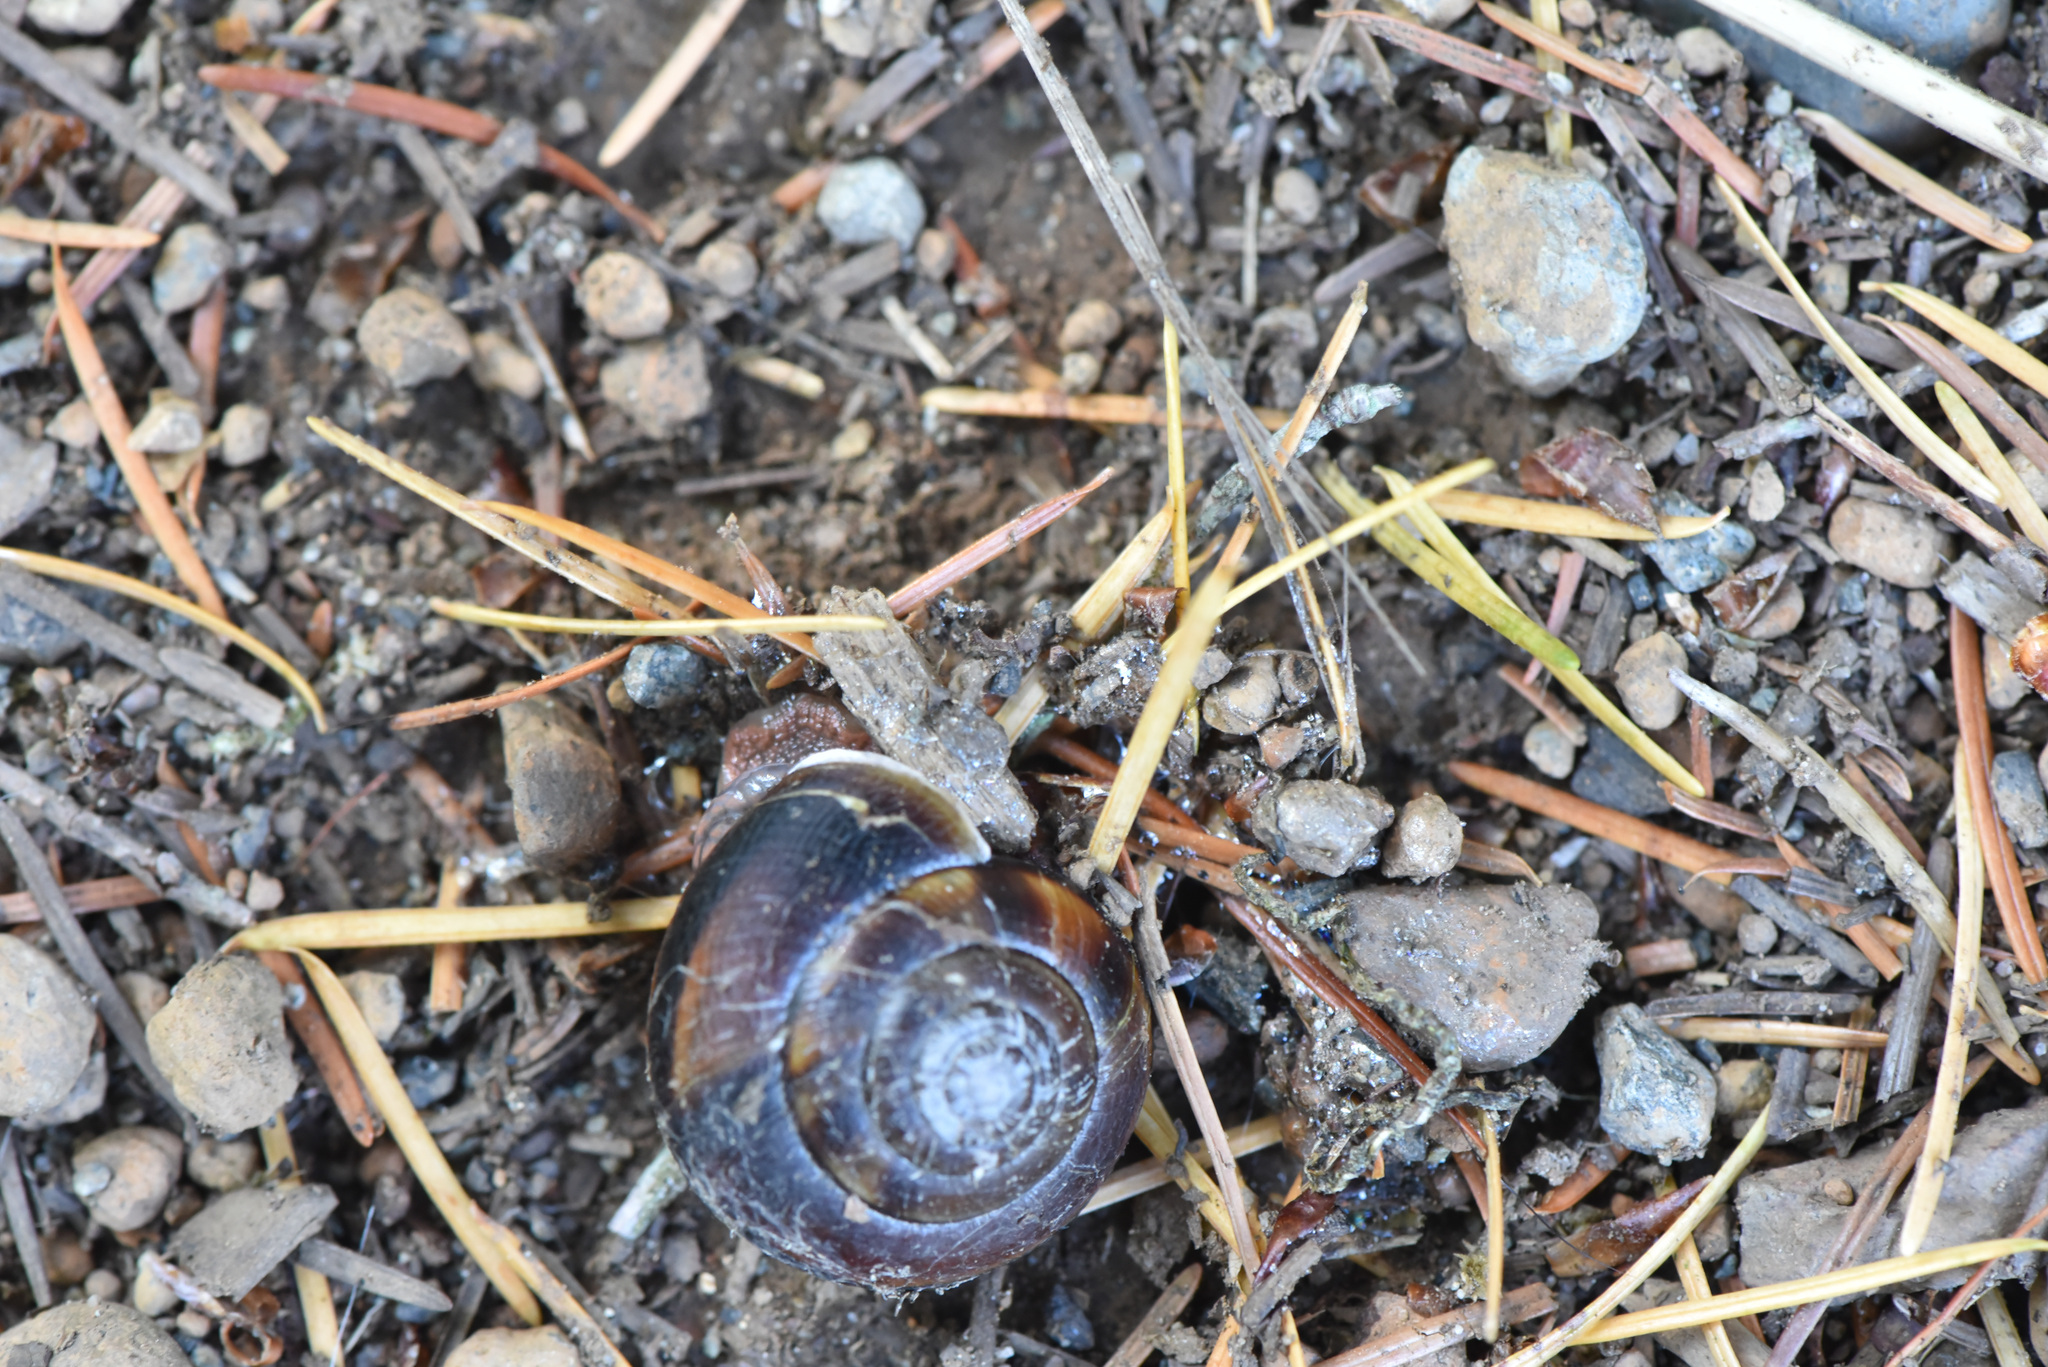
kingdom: Animalia
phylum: Mollusca
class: Gastropoda
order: Stylommatophora
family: Xanthonychidae
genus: Monadenia
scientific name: Monadenia fidelis
